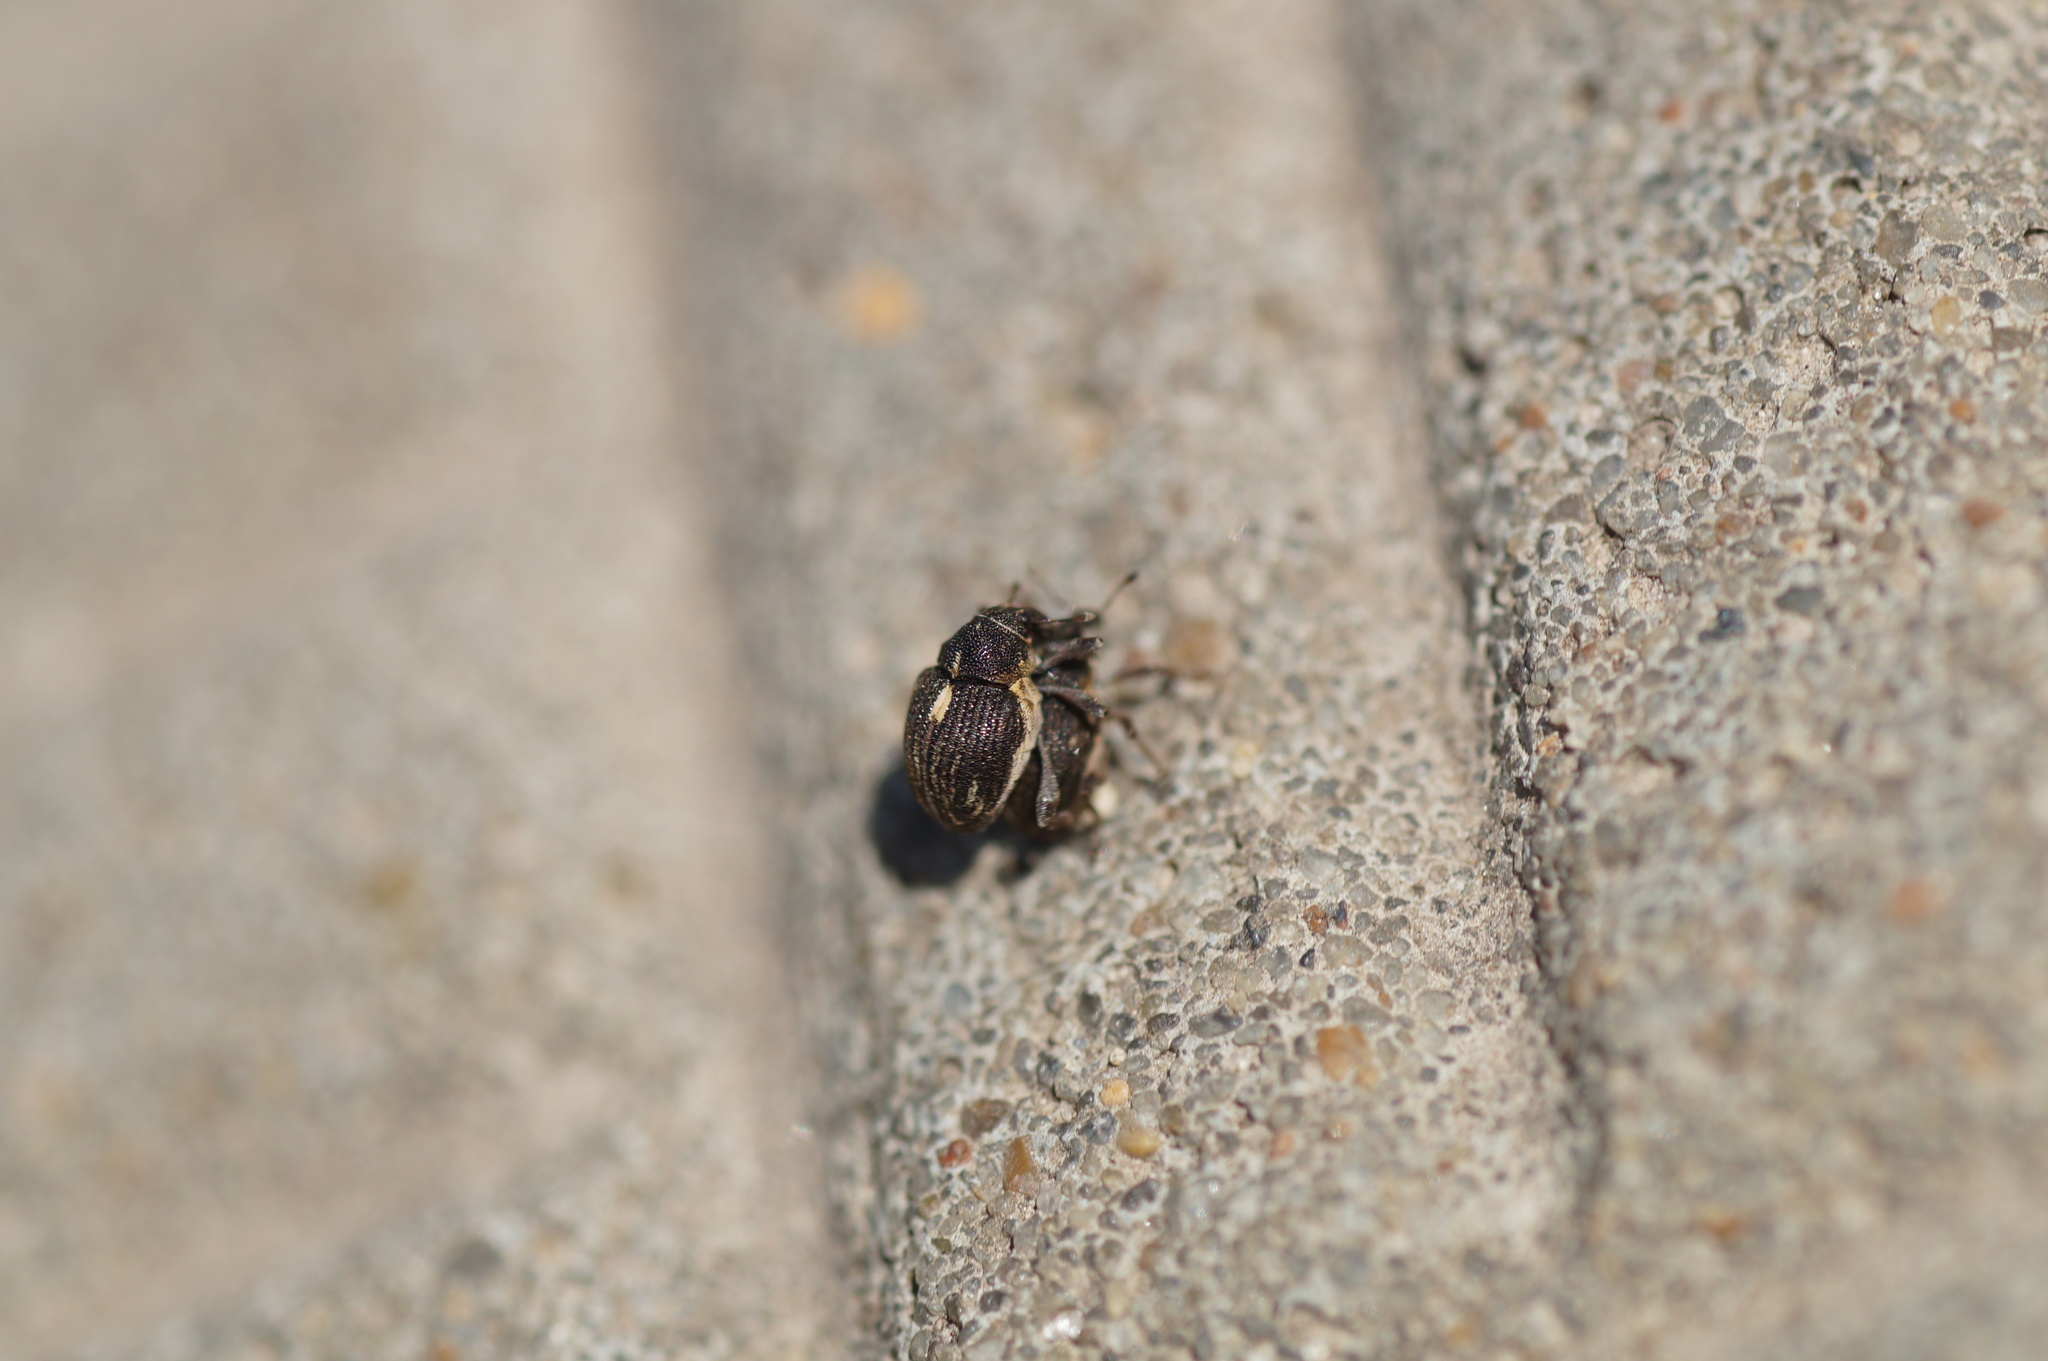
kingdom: Animalia
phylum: Arthropoda
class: Insecta
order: Coleoptera
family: Curculionidae
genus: Rhinoncus
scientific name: Rhinoncus leucostigma
